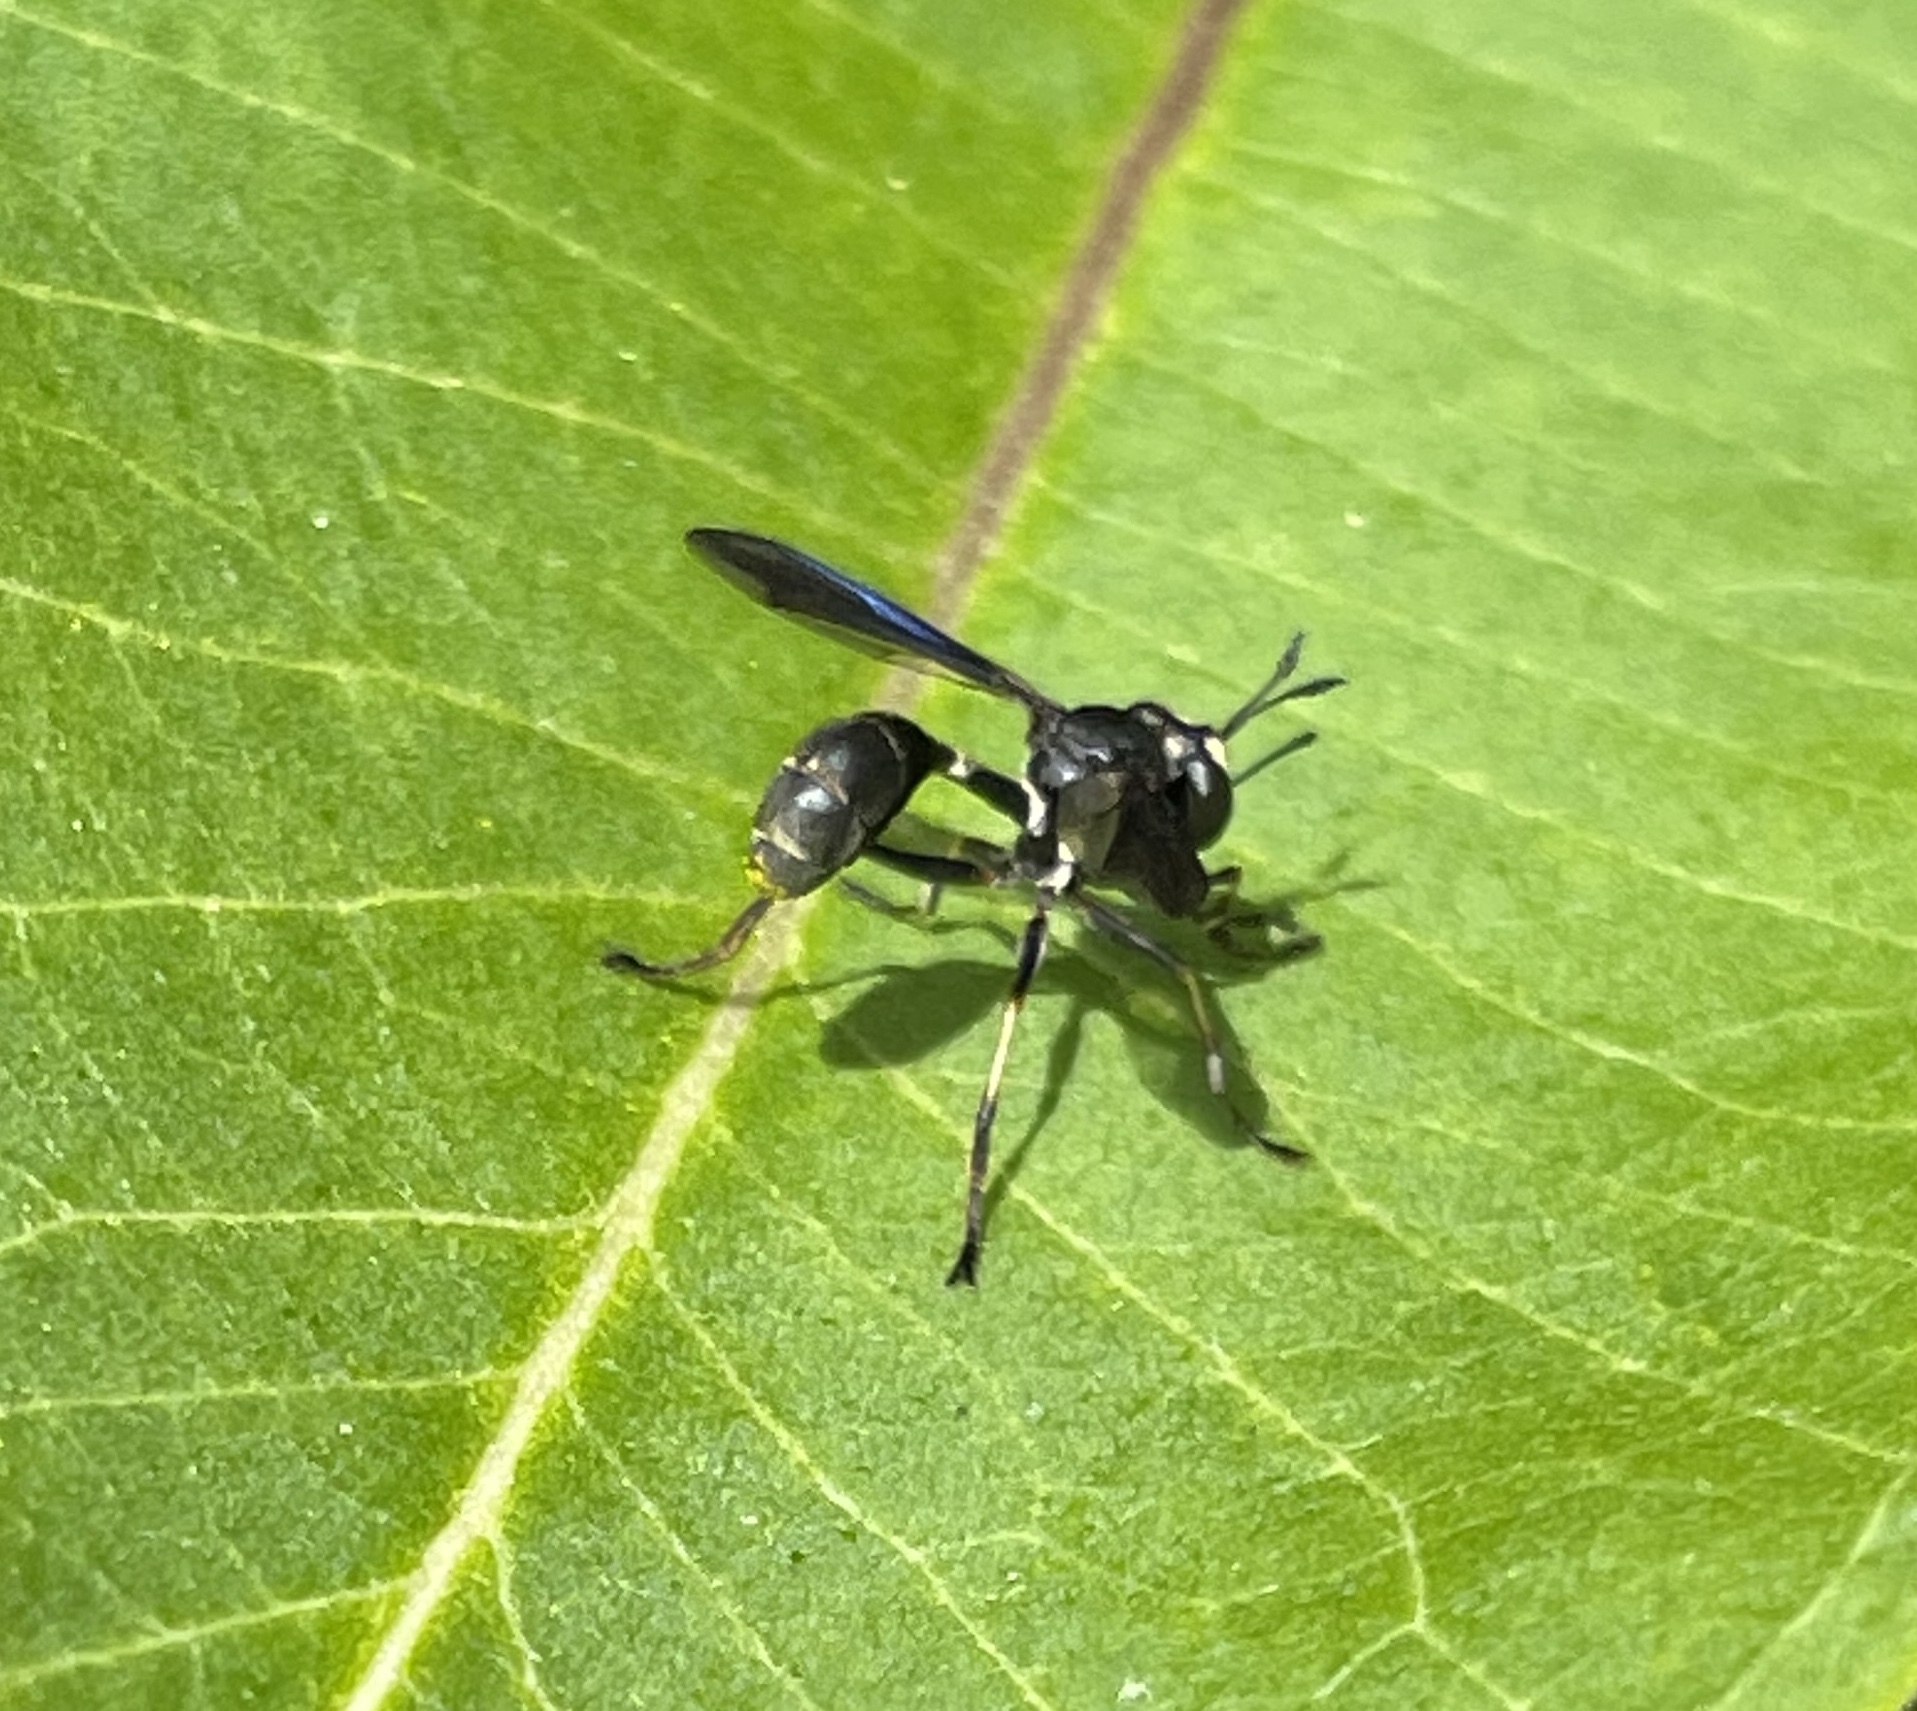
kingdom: Animalia
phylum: Arthropoda
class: Insecta
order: Diptera
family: Conopidae
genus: Physocephala
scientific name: Physocephala tibialis
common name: Common eastern physocephala
